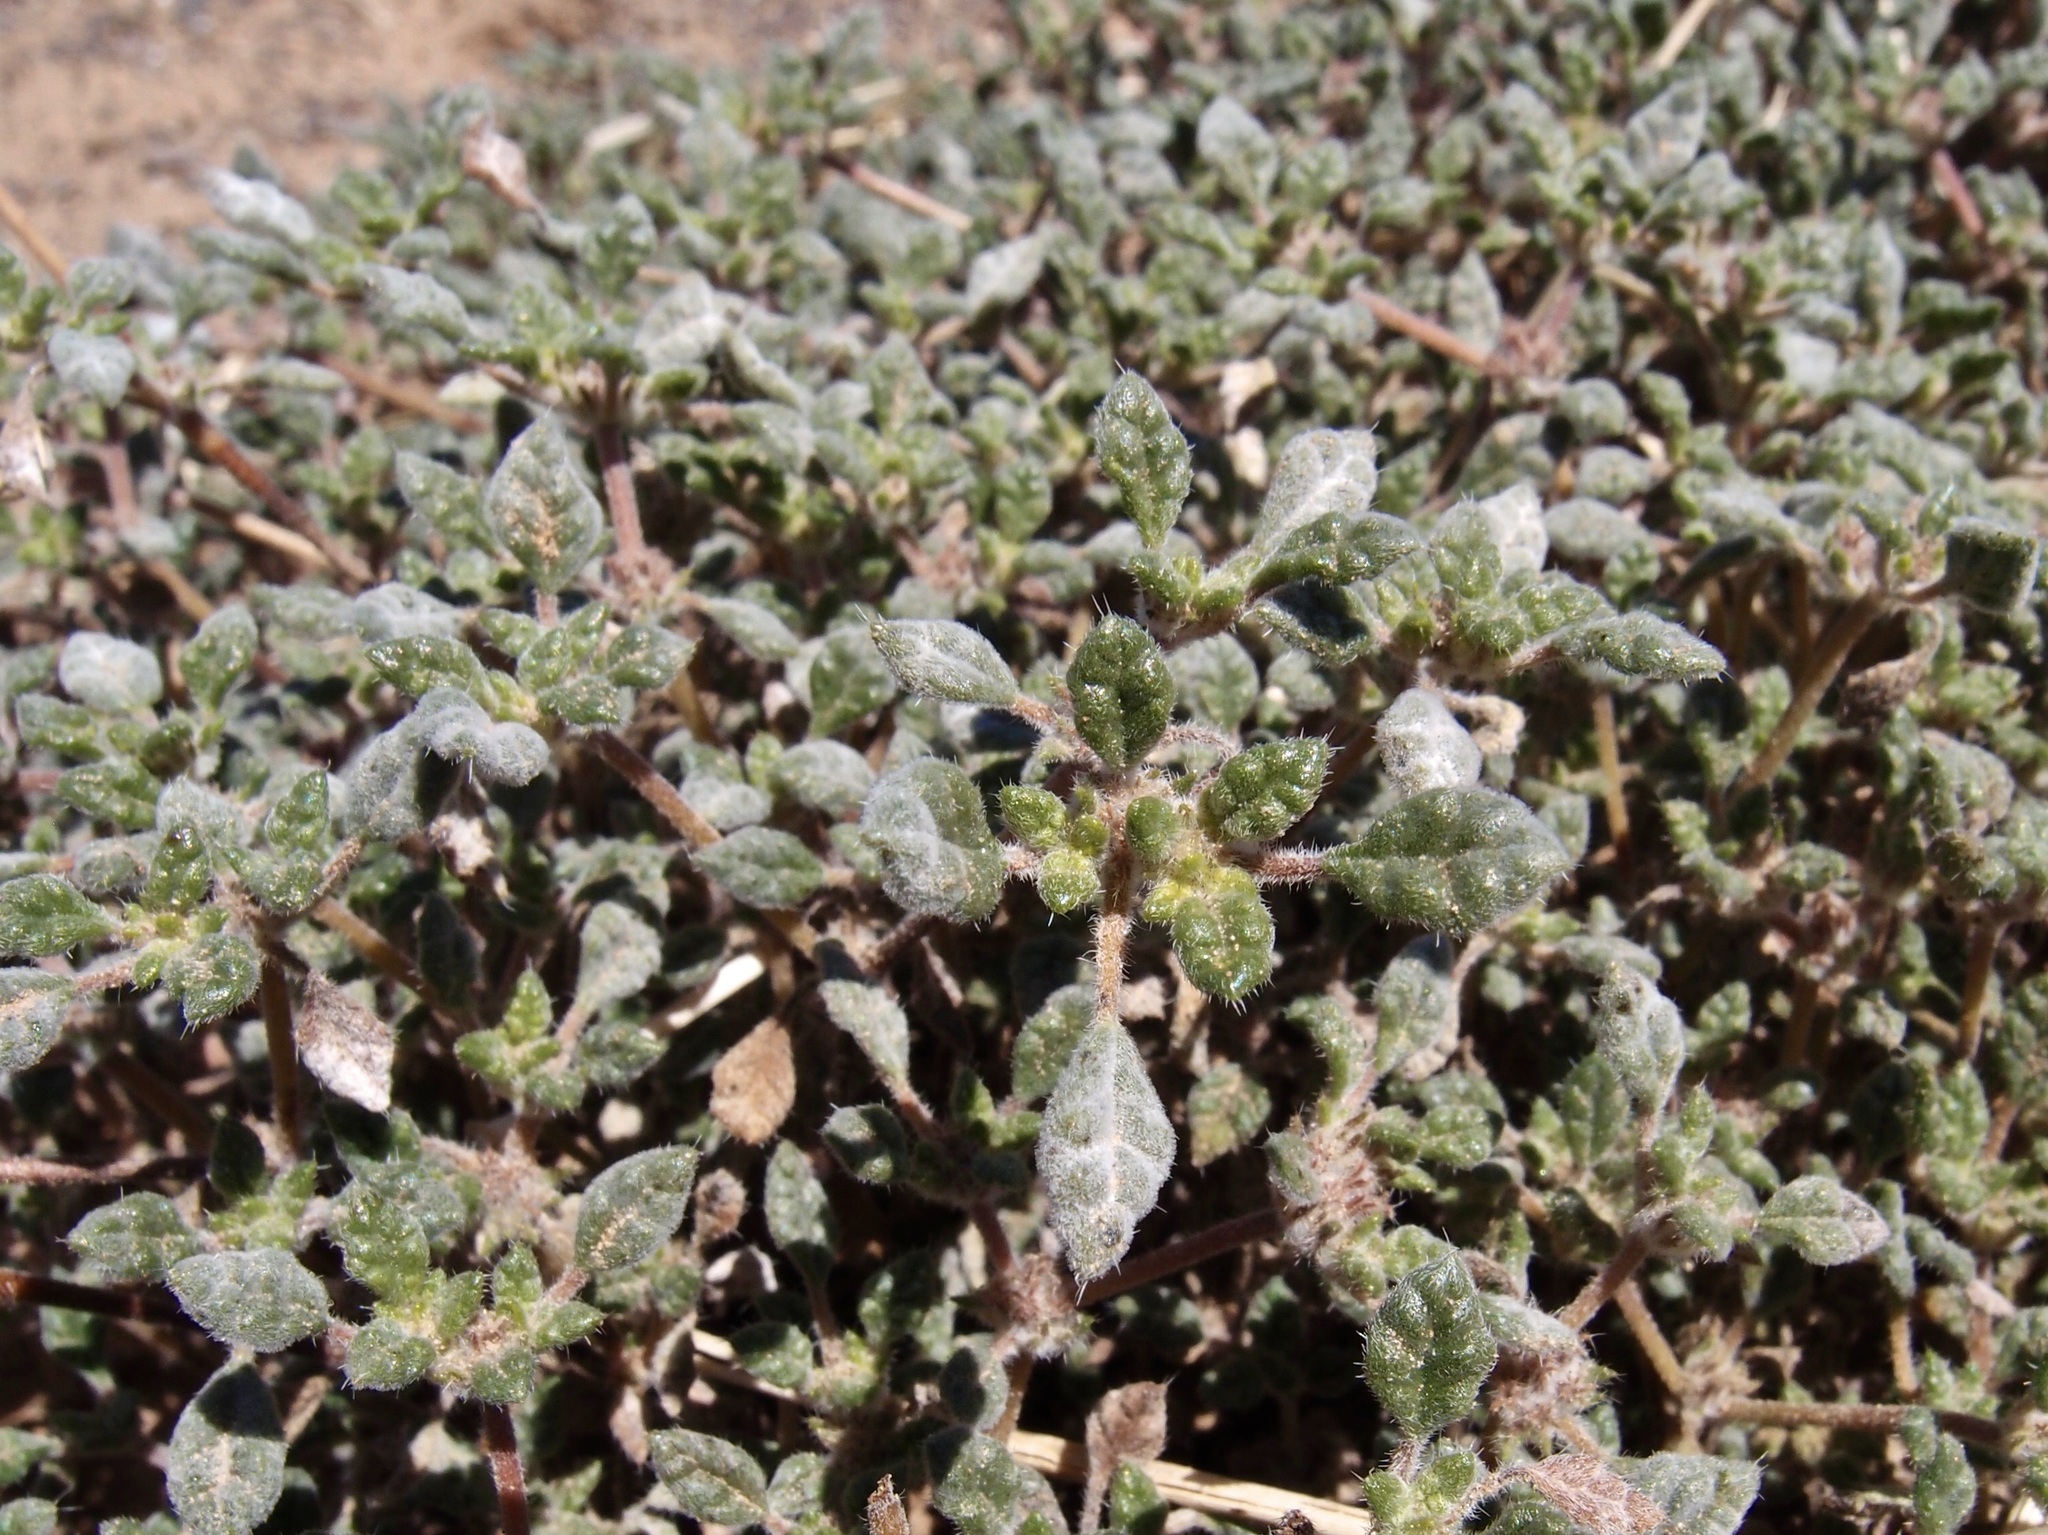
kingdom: Plantae
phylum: Tracheophyta
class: Magnoliopsida
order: Boraginales
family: Ehretiaceae
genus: Tiquilia
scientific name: Tiquilia palmeri
